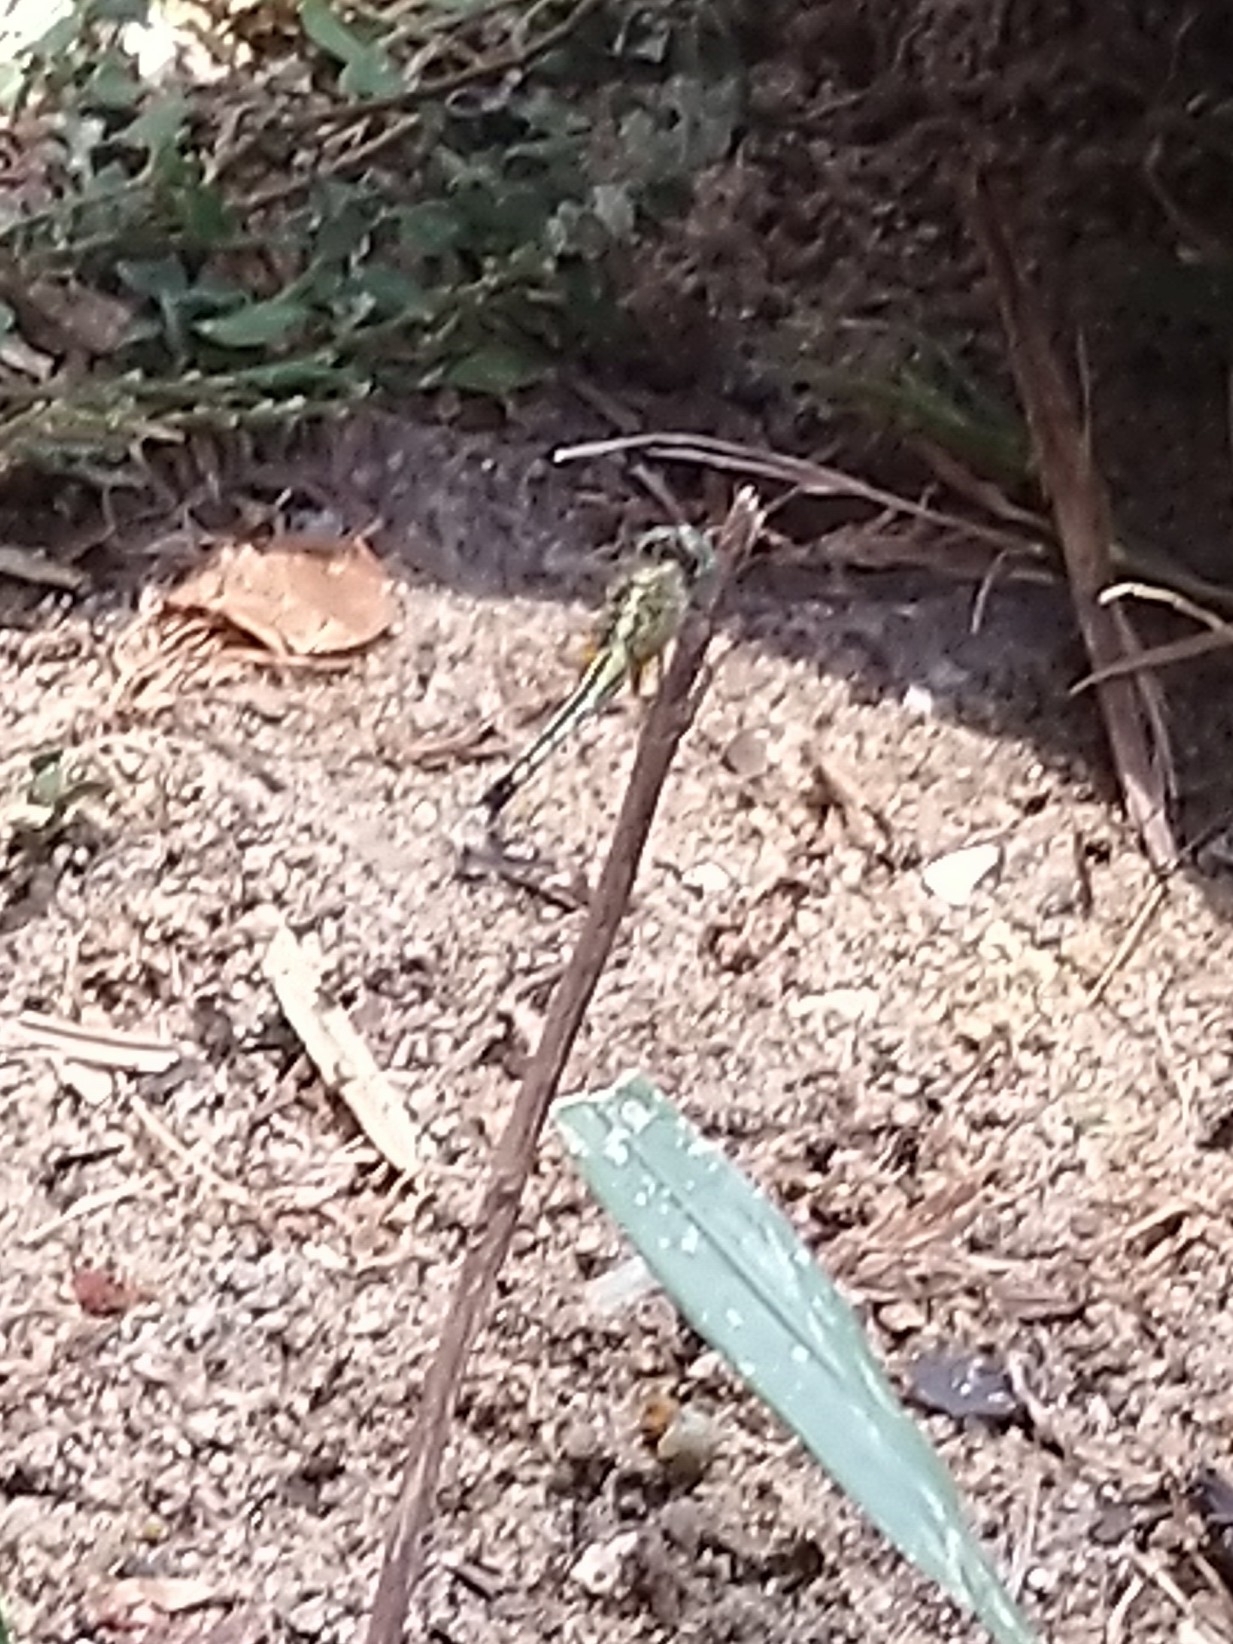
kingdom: Animalia
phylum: Arthropoda
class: Insecta
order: Odonata
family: Libellulidae
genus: Diplacodes
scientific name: Diplacodes trivialis
